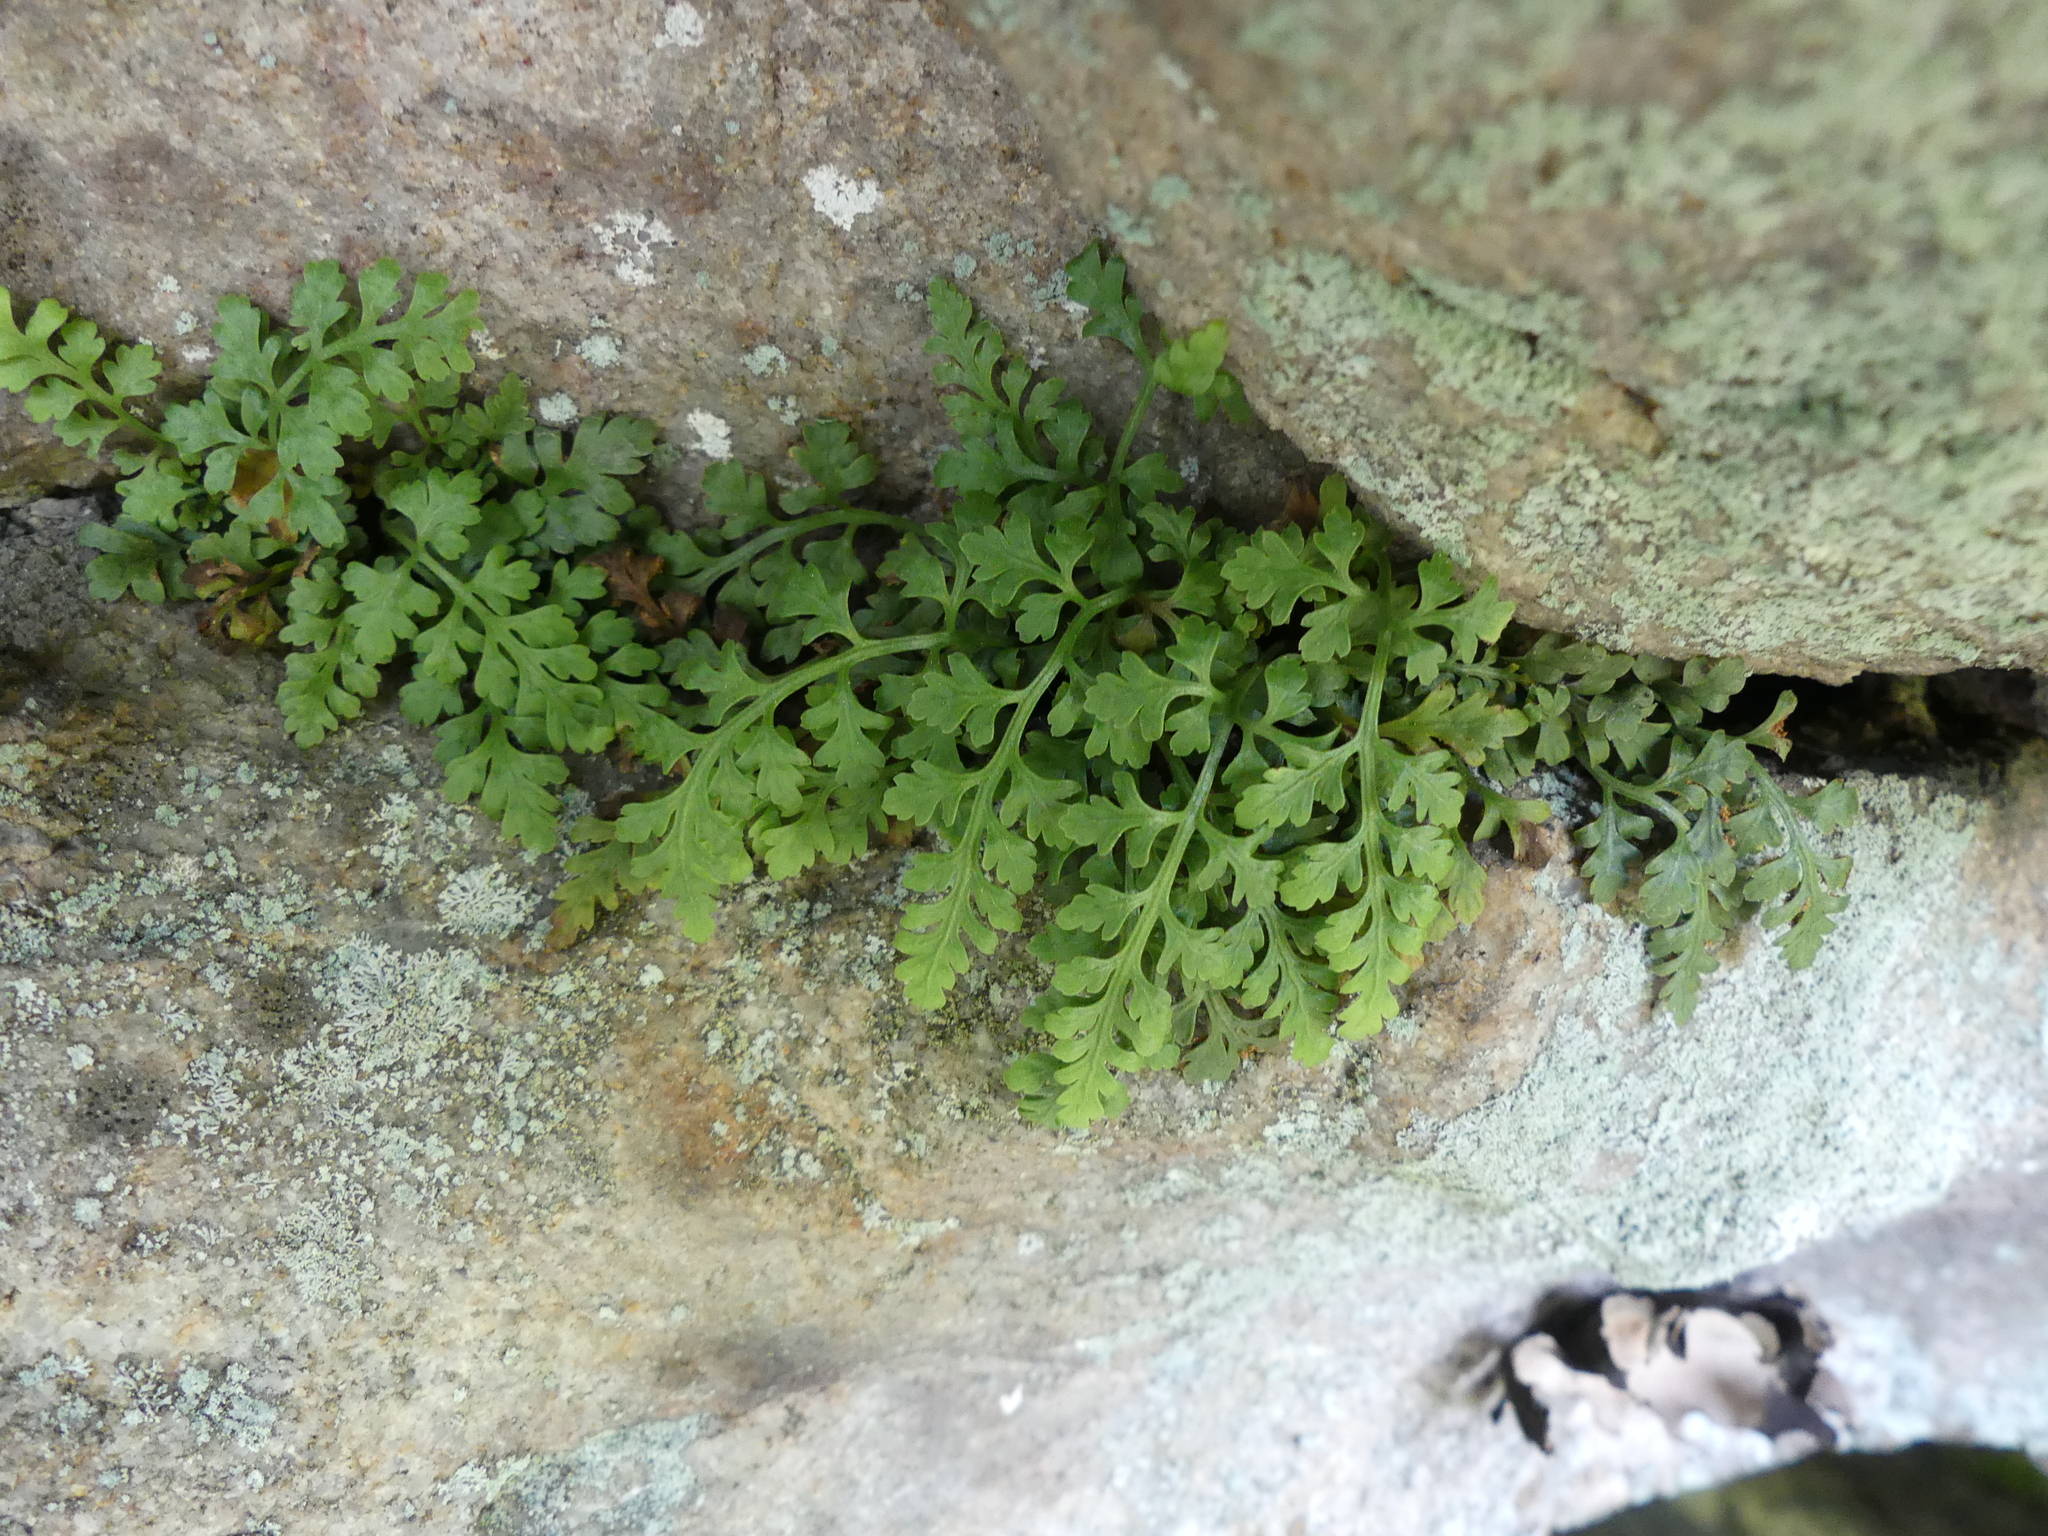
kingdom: Plantae
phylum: Tracheophyta
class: Polypodiopsida
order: Polypodiales
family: Aspleniaceae
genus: Asplenium
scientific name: Asplenium montanum
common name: Mountain spleenwort
